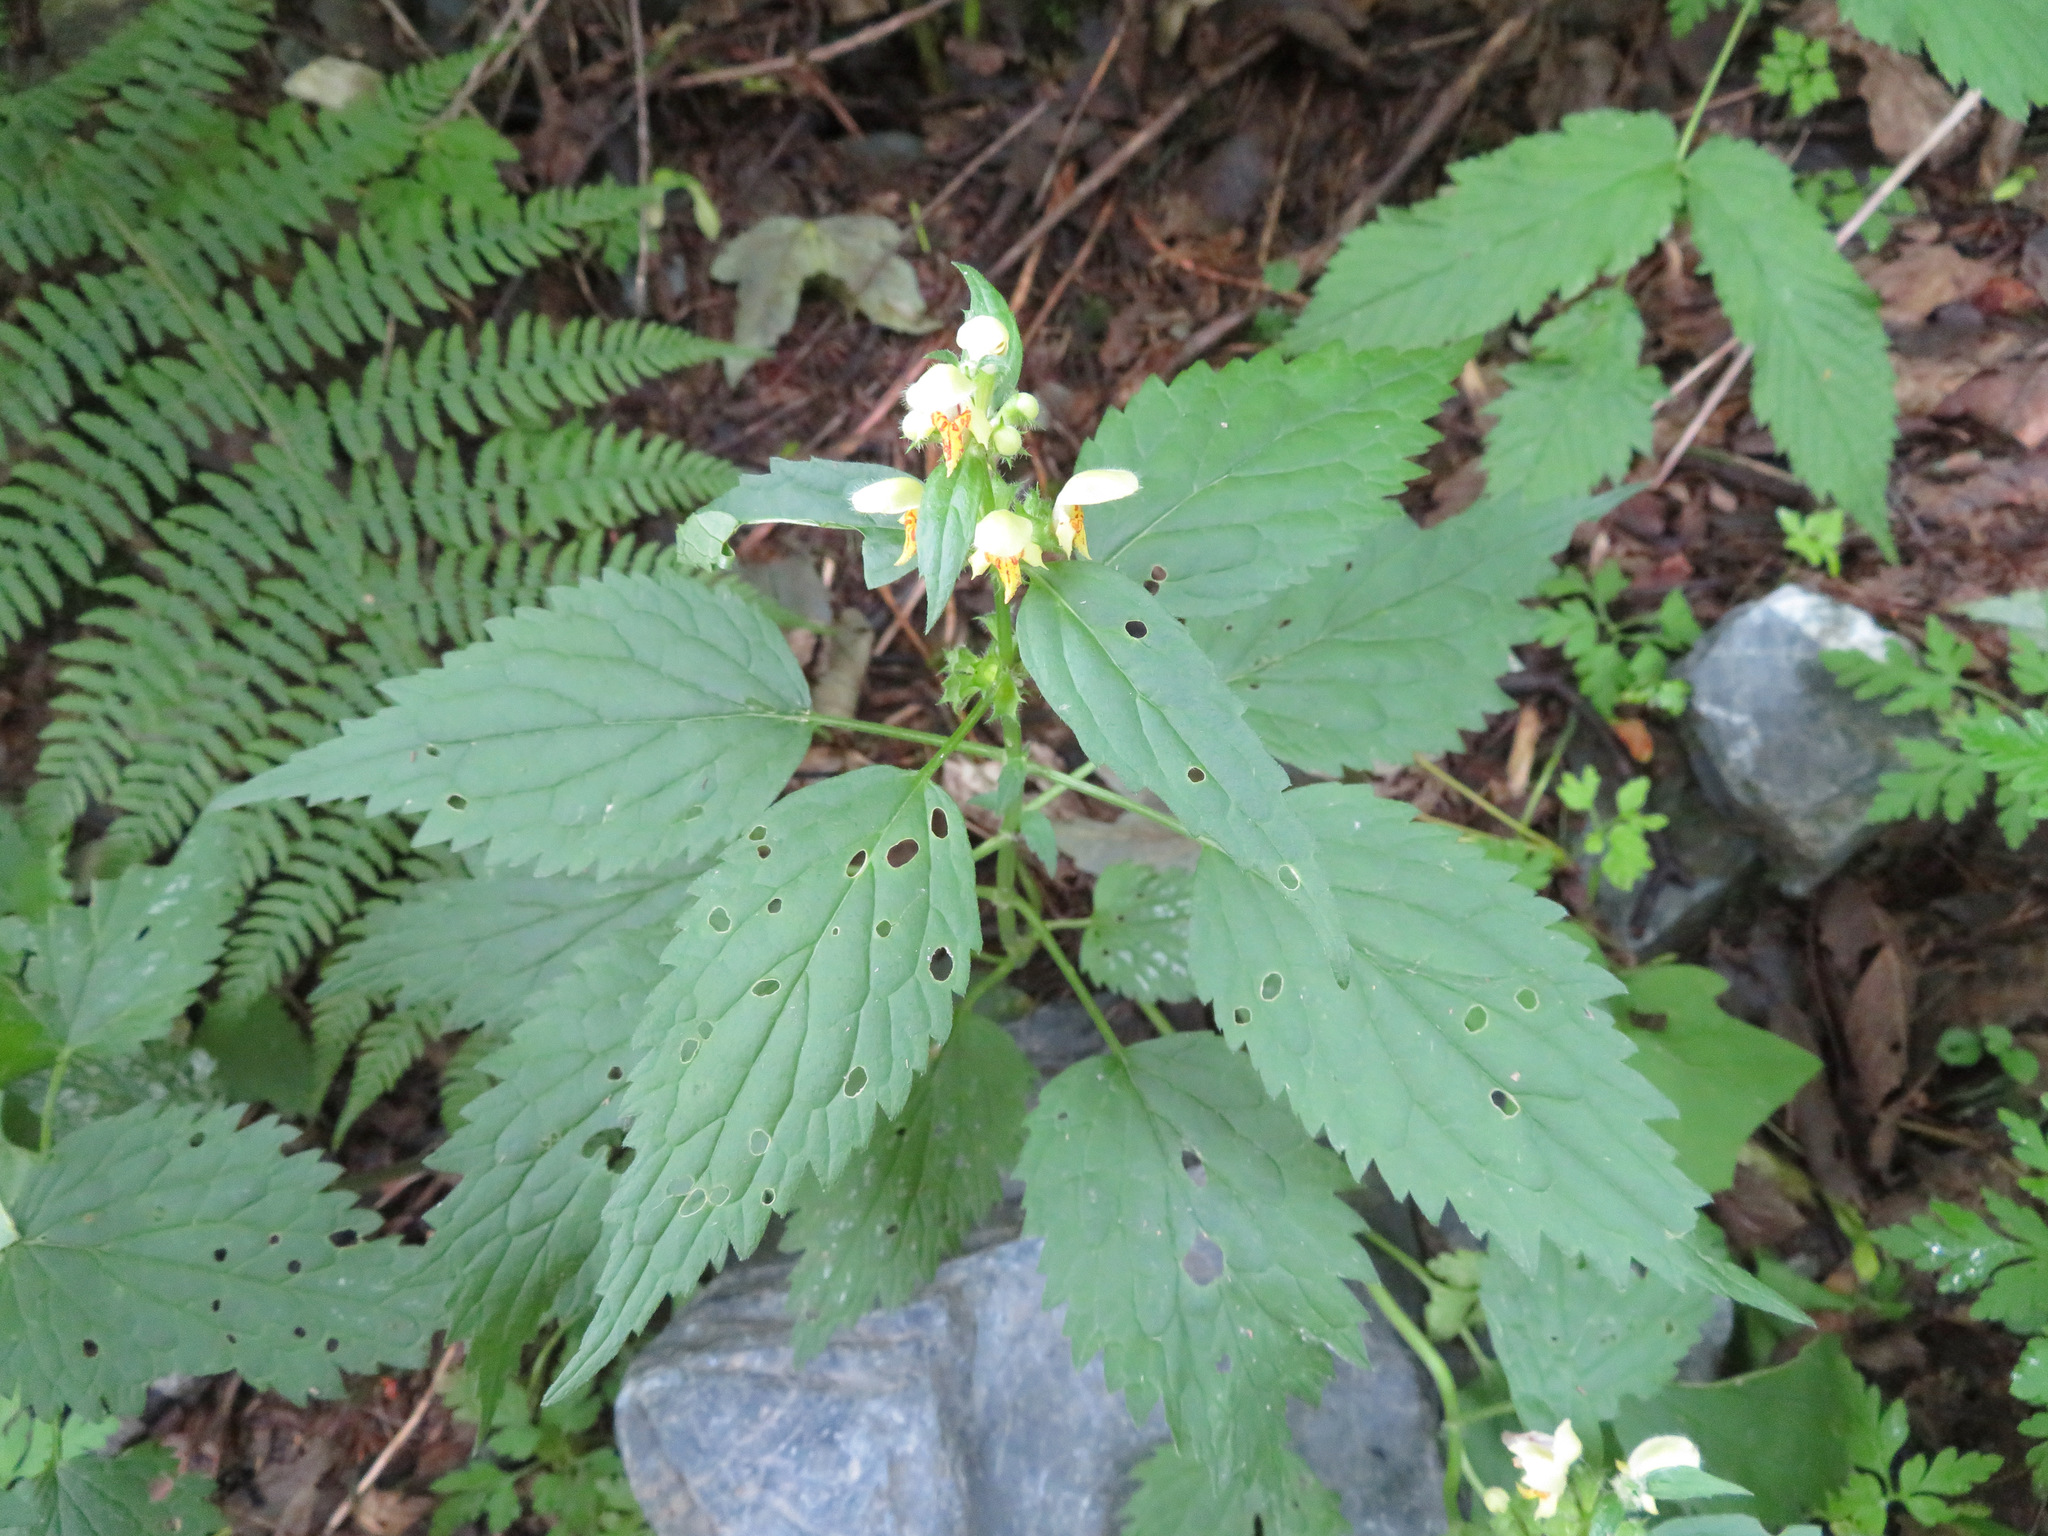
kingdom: Plantae
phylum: Tracheophyta
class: Magnoliopsida
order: Lamiales
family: Lamiaceae
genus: Lamium
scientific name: Lamium galeobdolon
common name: Yellow archangel
